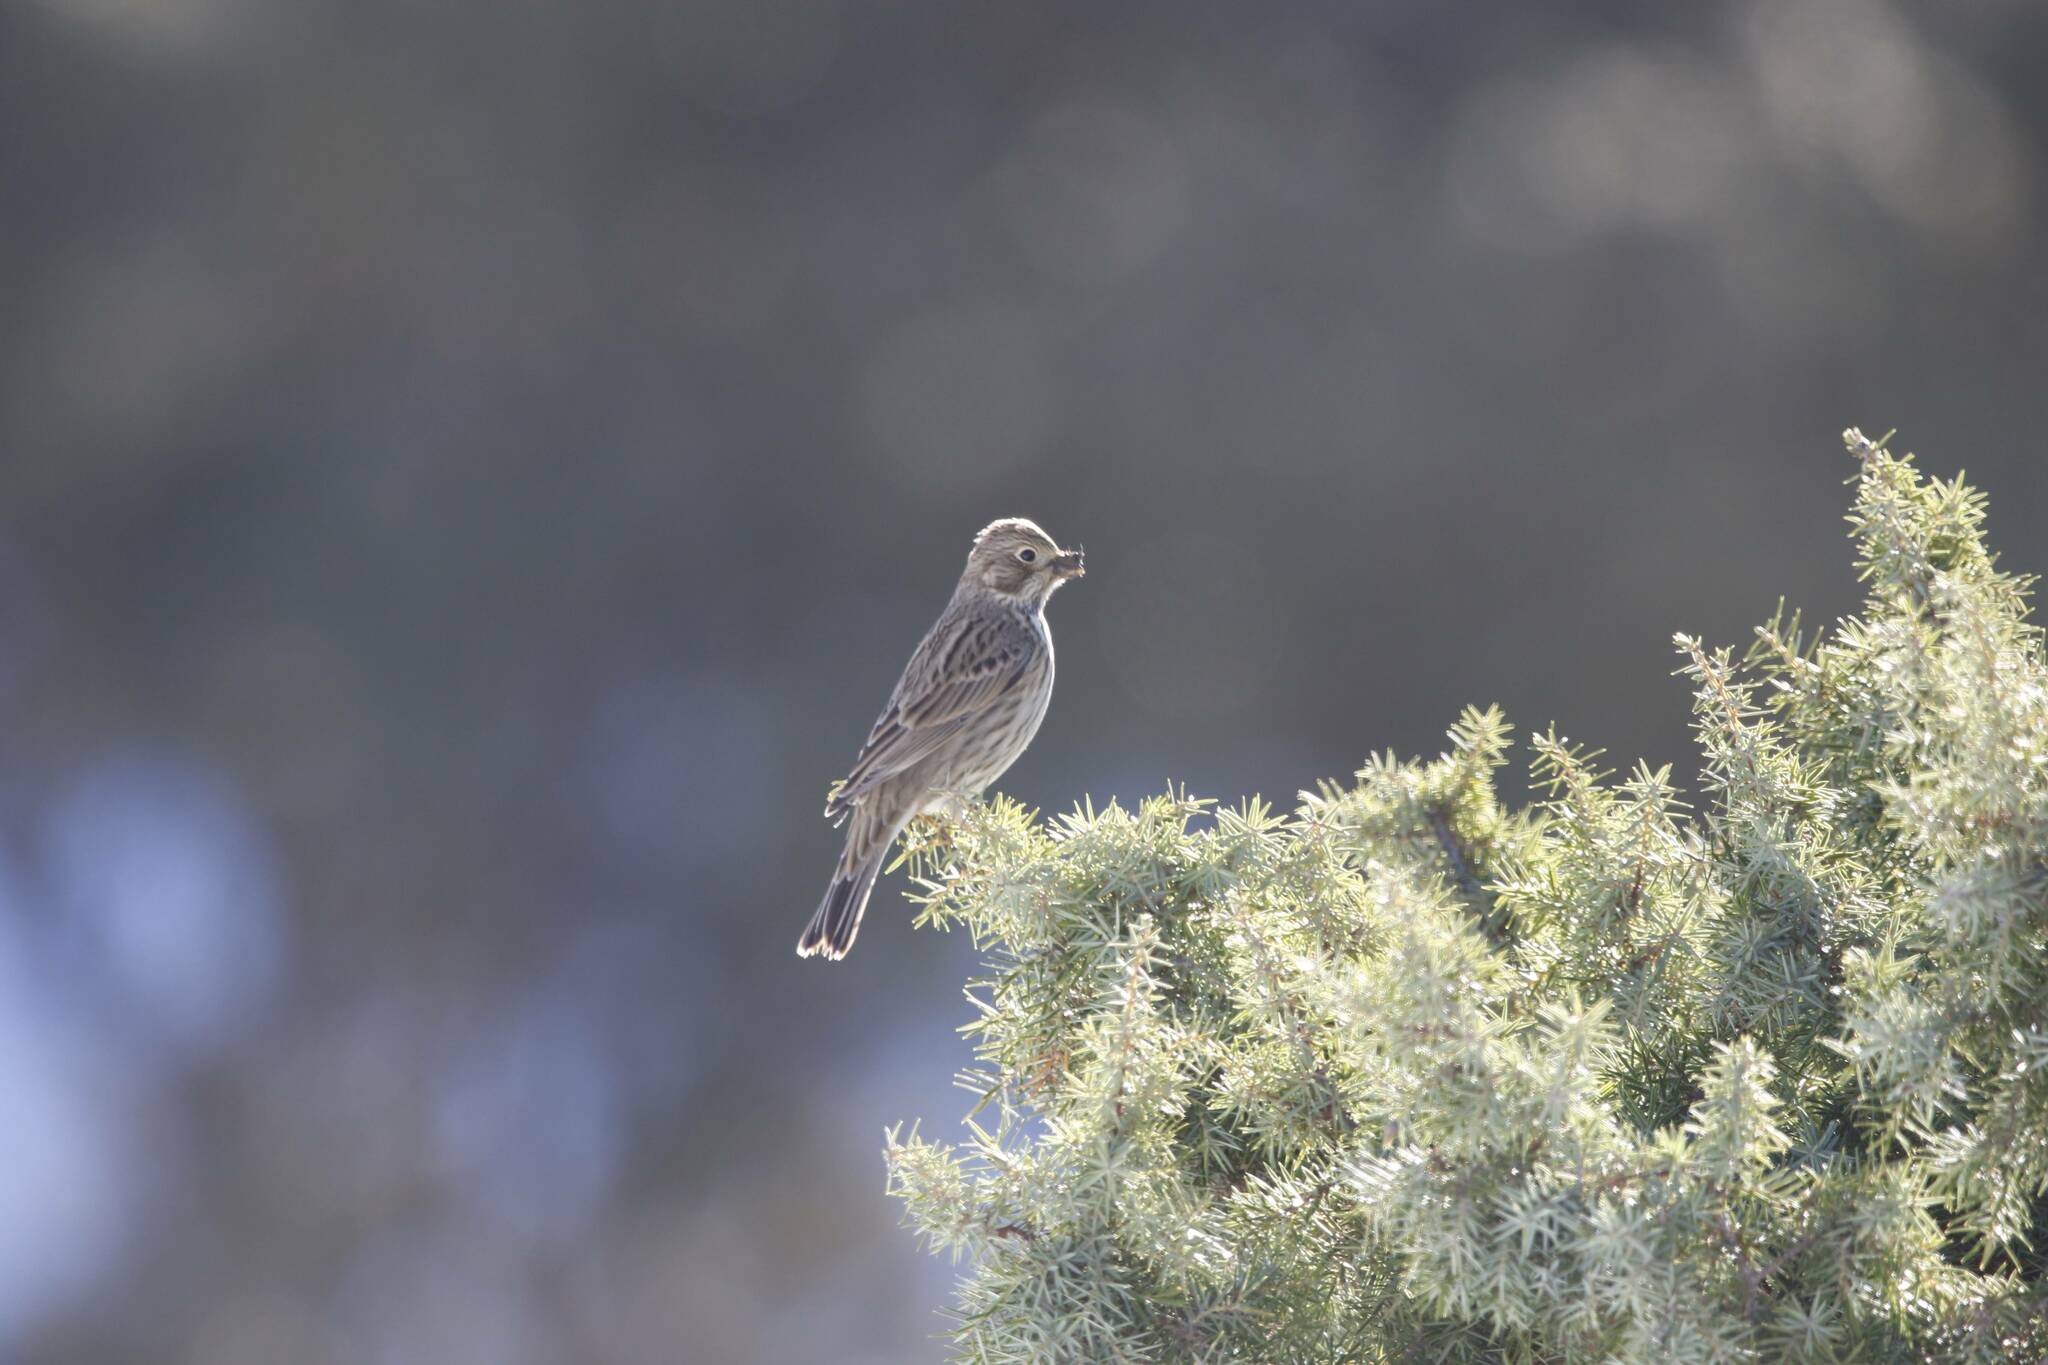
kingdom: Animalia
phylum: Chordata
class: Aves
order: Passeriformes
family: Emberizidae
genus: Emberiza
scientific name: Emberiza calandra
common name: Corn bunting
